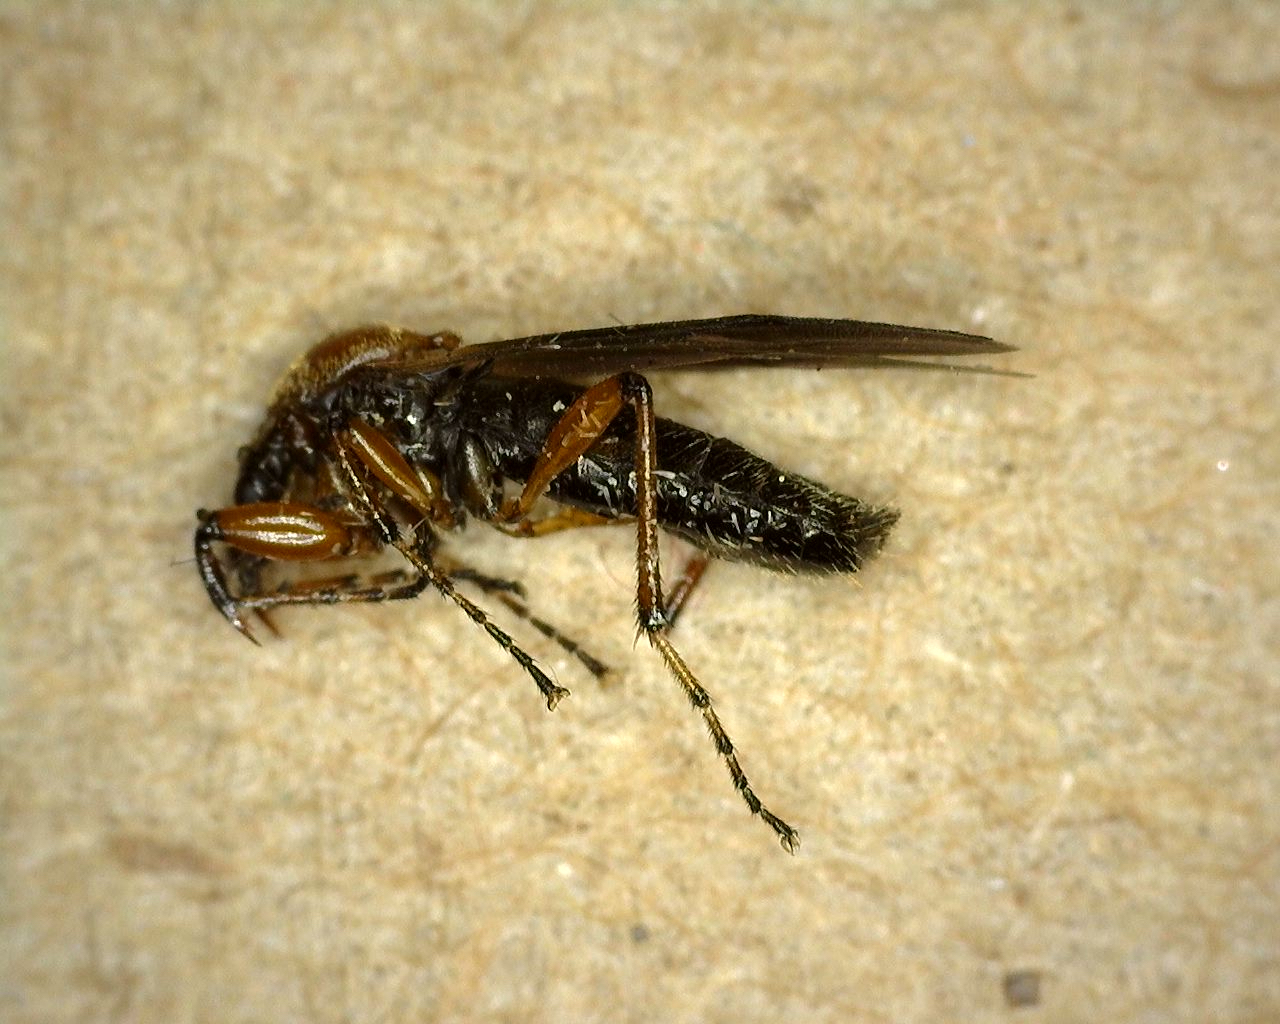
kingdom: Animalia
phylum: Arthropoda
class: Insecta
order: Diptera
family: Bibionidae
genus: Bibio
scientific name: Bibio articulatus
